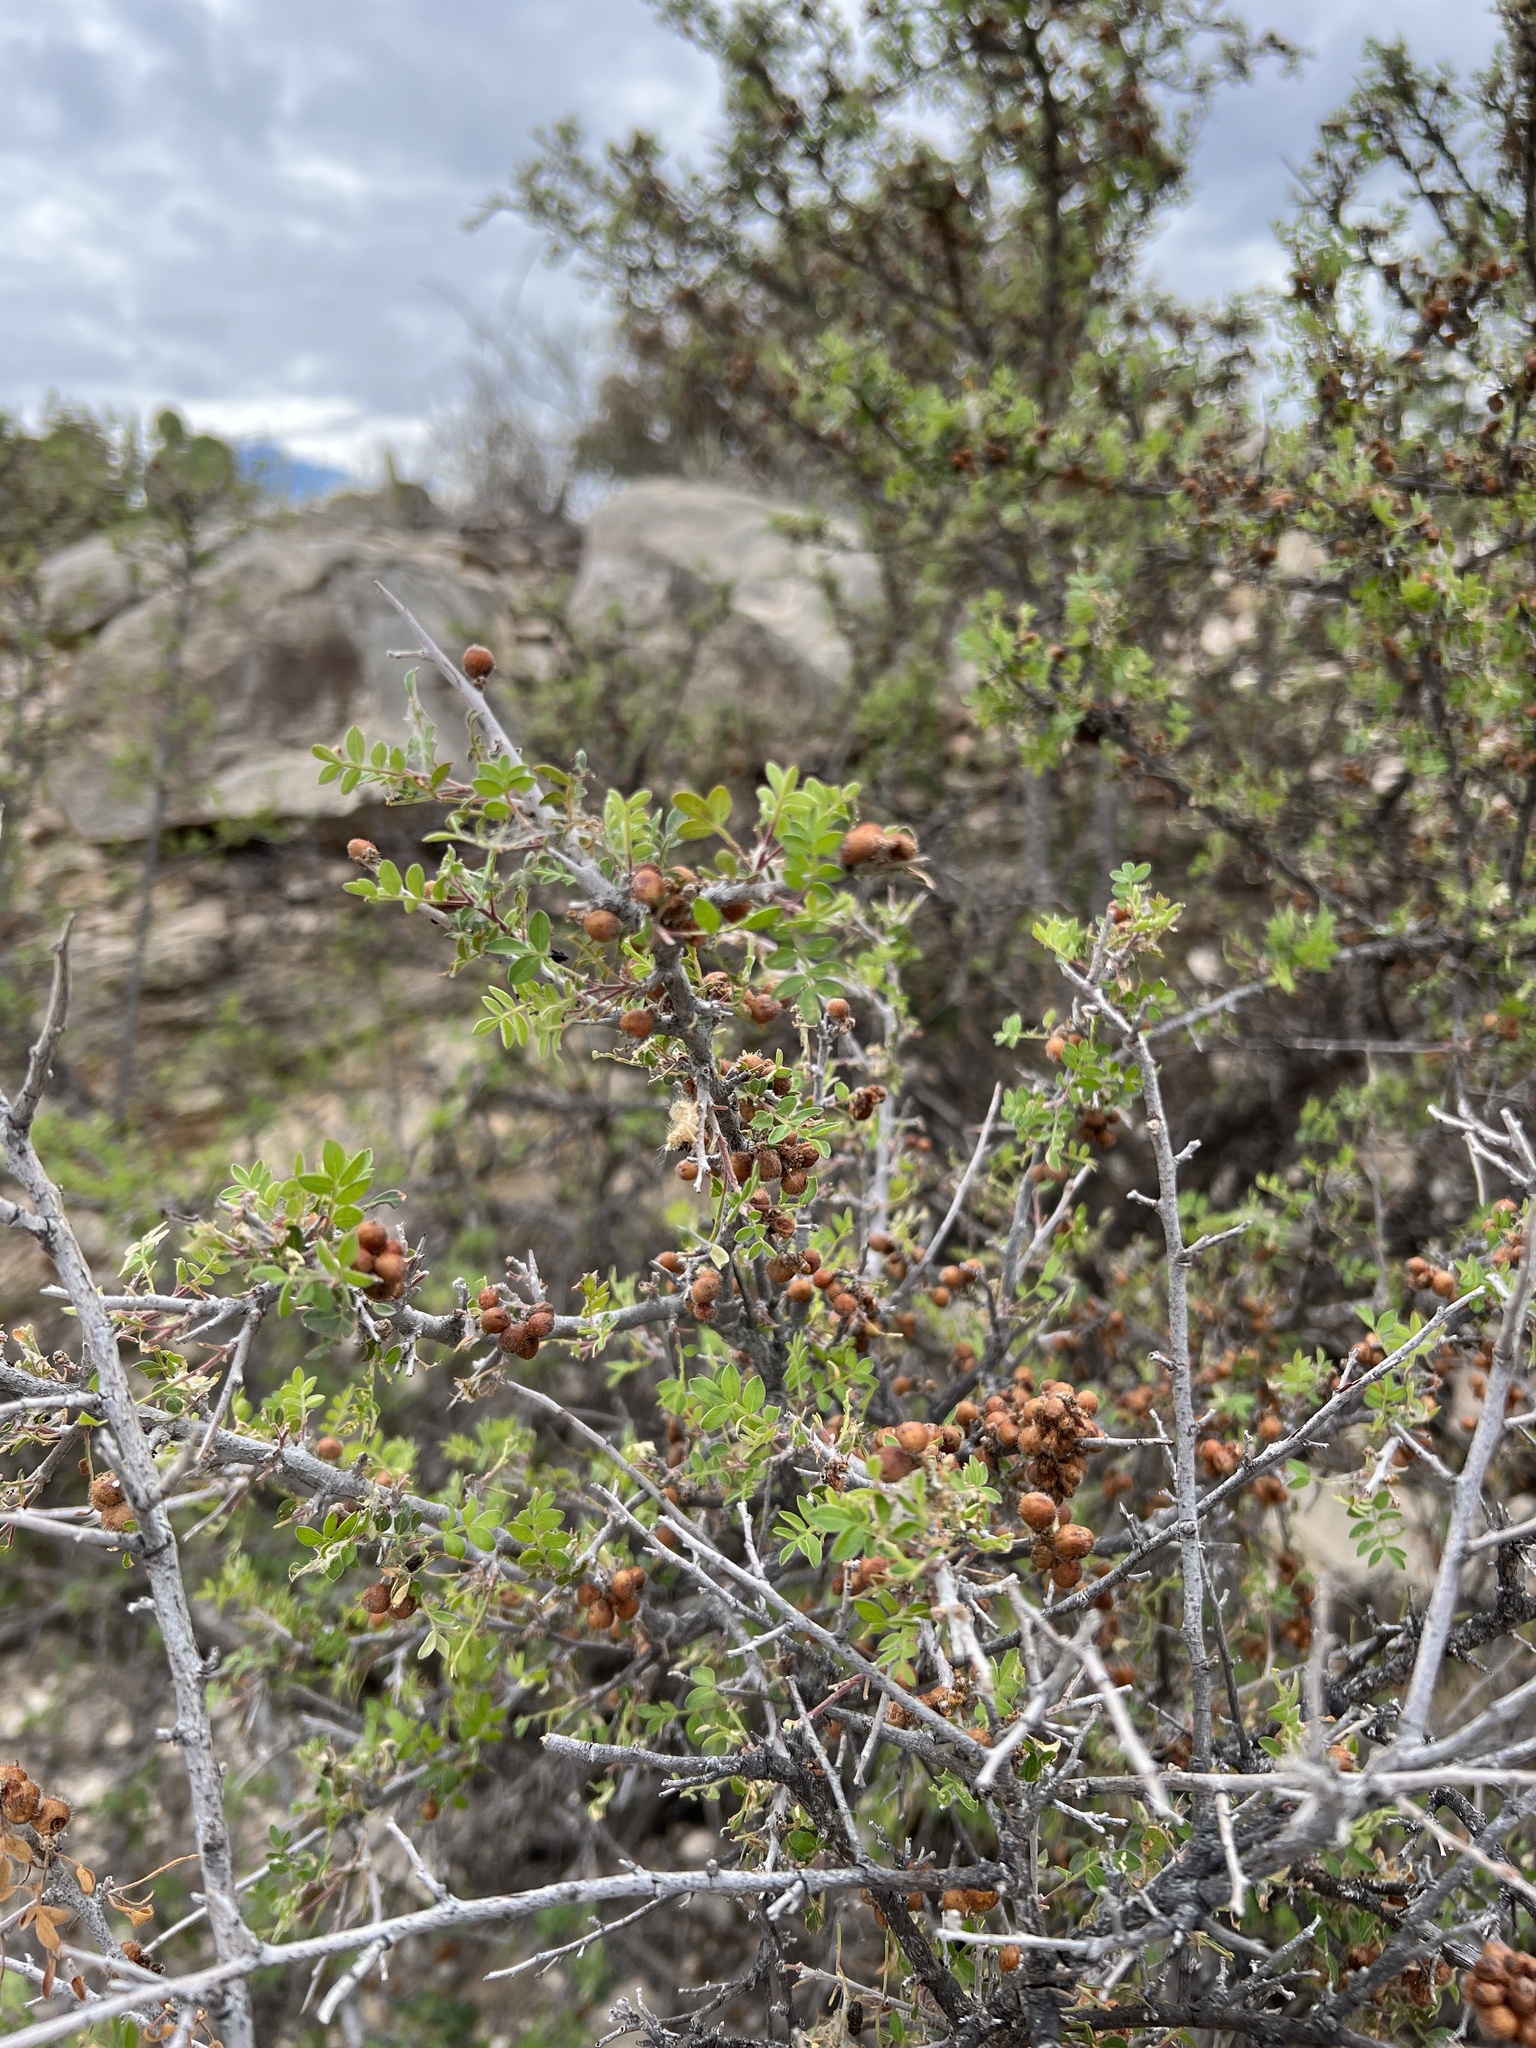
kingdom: Plantae
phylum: Tracheophyta
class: Magnoliopsida
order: Sapindales
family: Anacardiaceae
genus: Rhus
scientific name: Rhus microphylla
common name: Desert sumac
